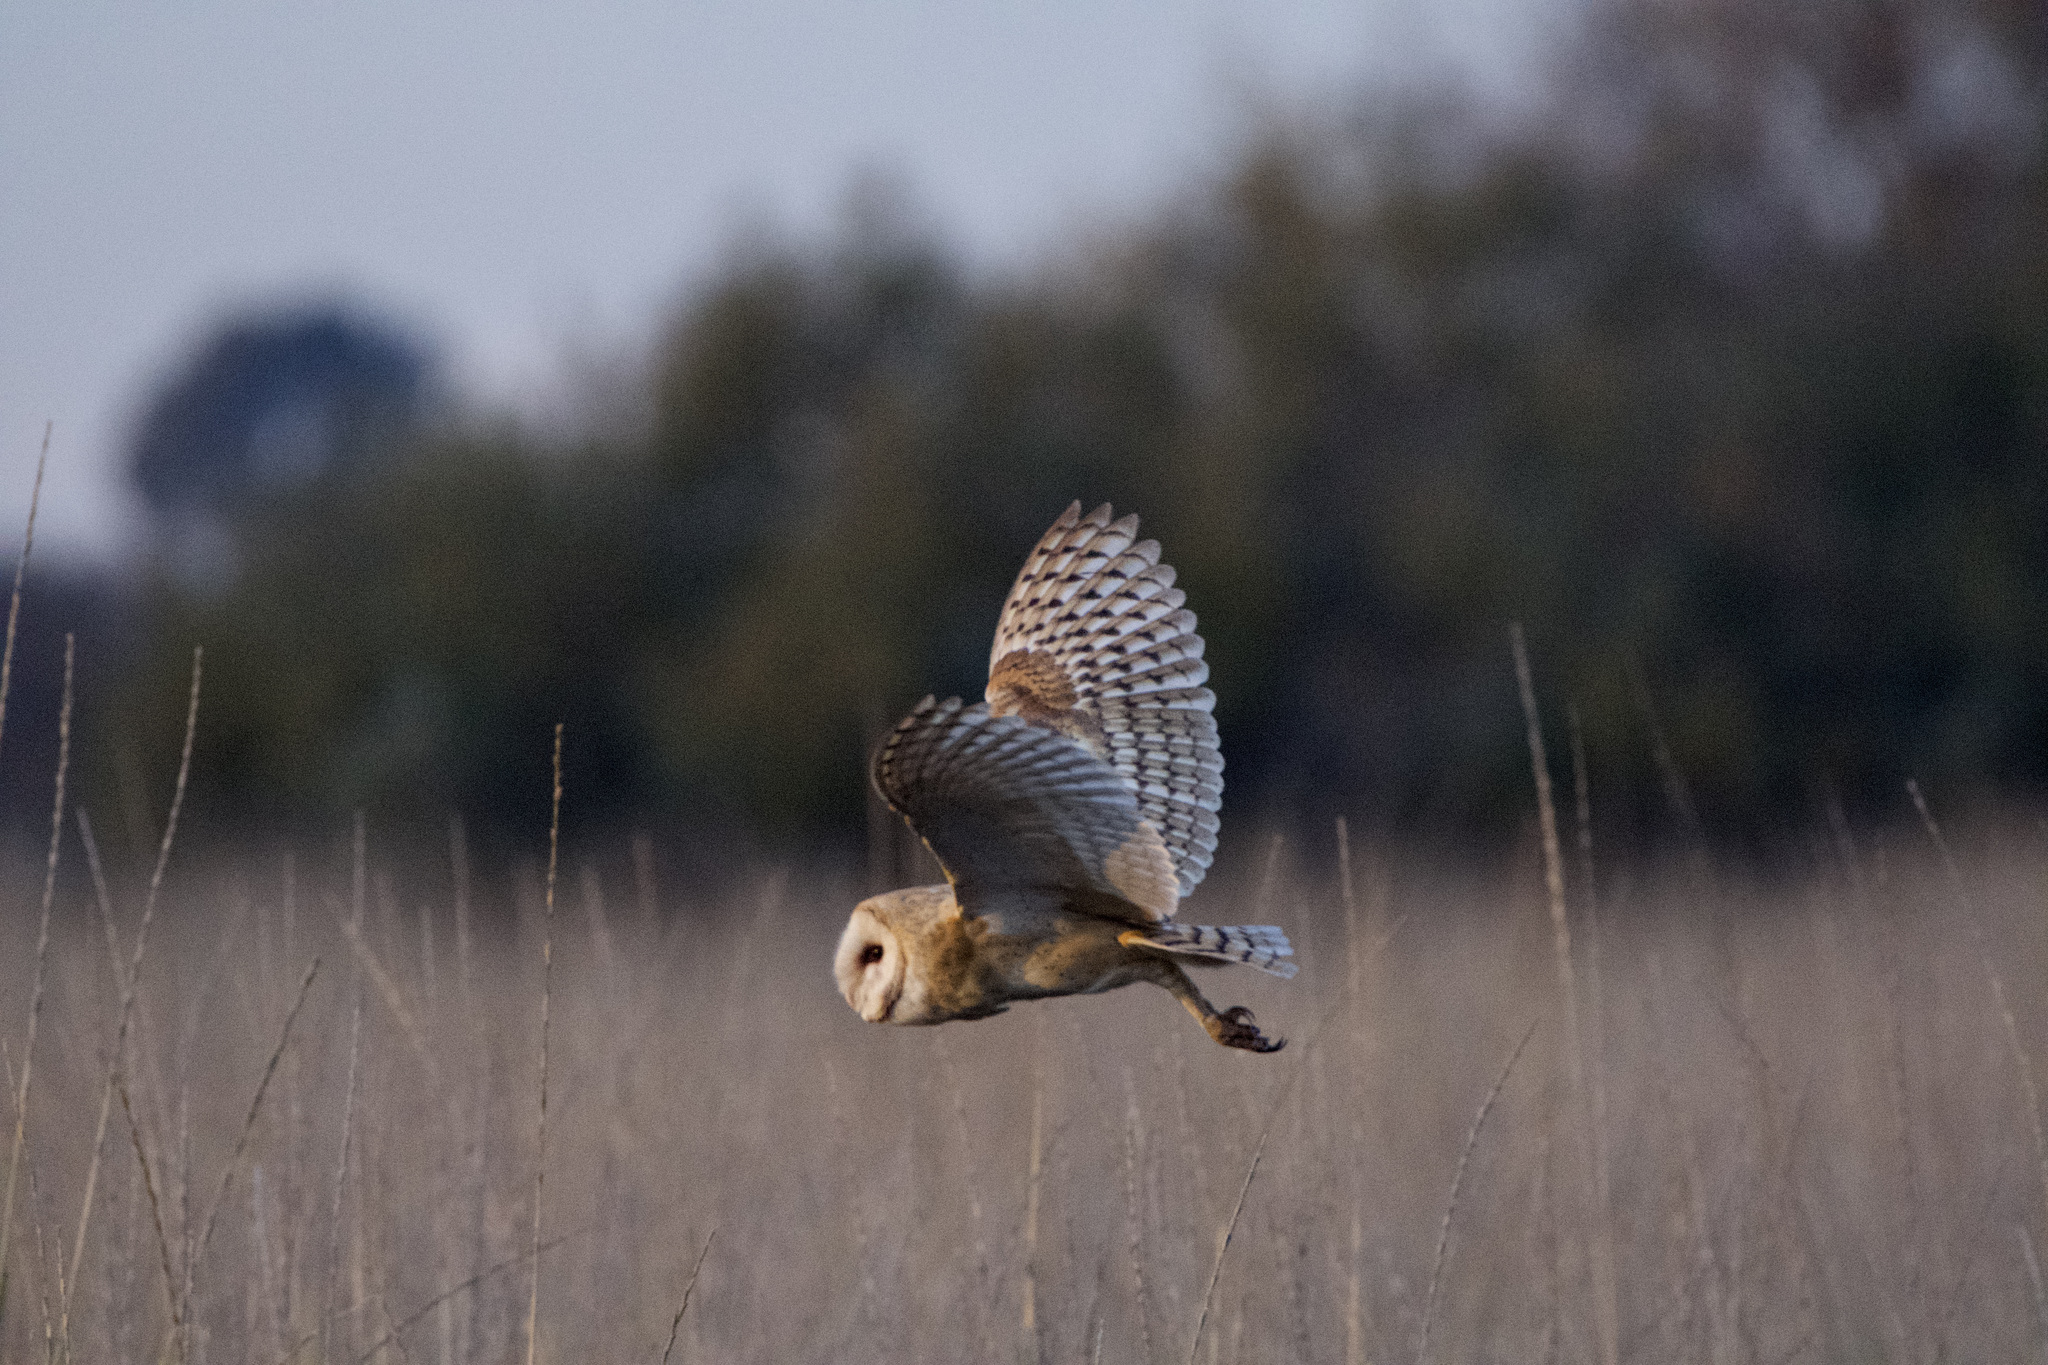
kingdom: Animalia
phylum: Chordata
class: Aves
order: Strigiformes
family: Tytonidae
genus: Tyto
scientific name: Tyto alba
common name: Barn owl
